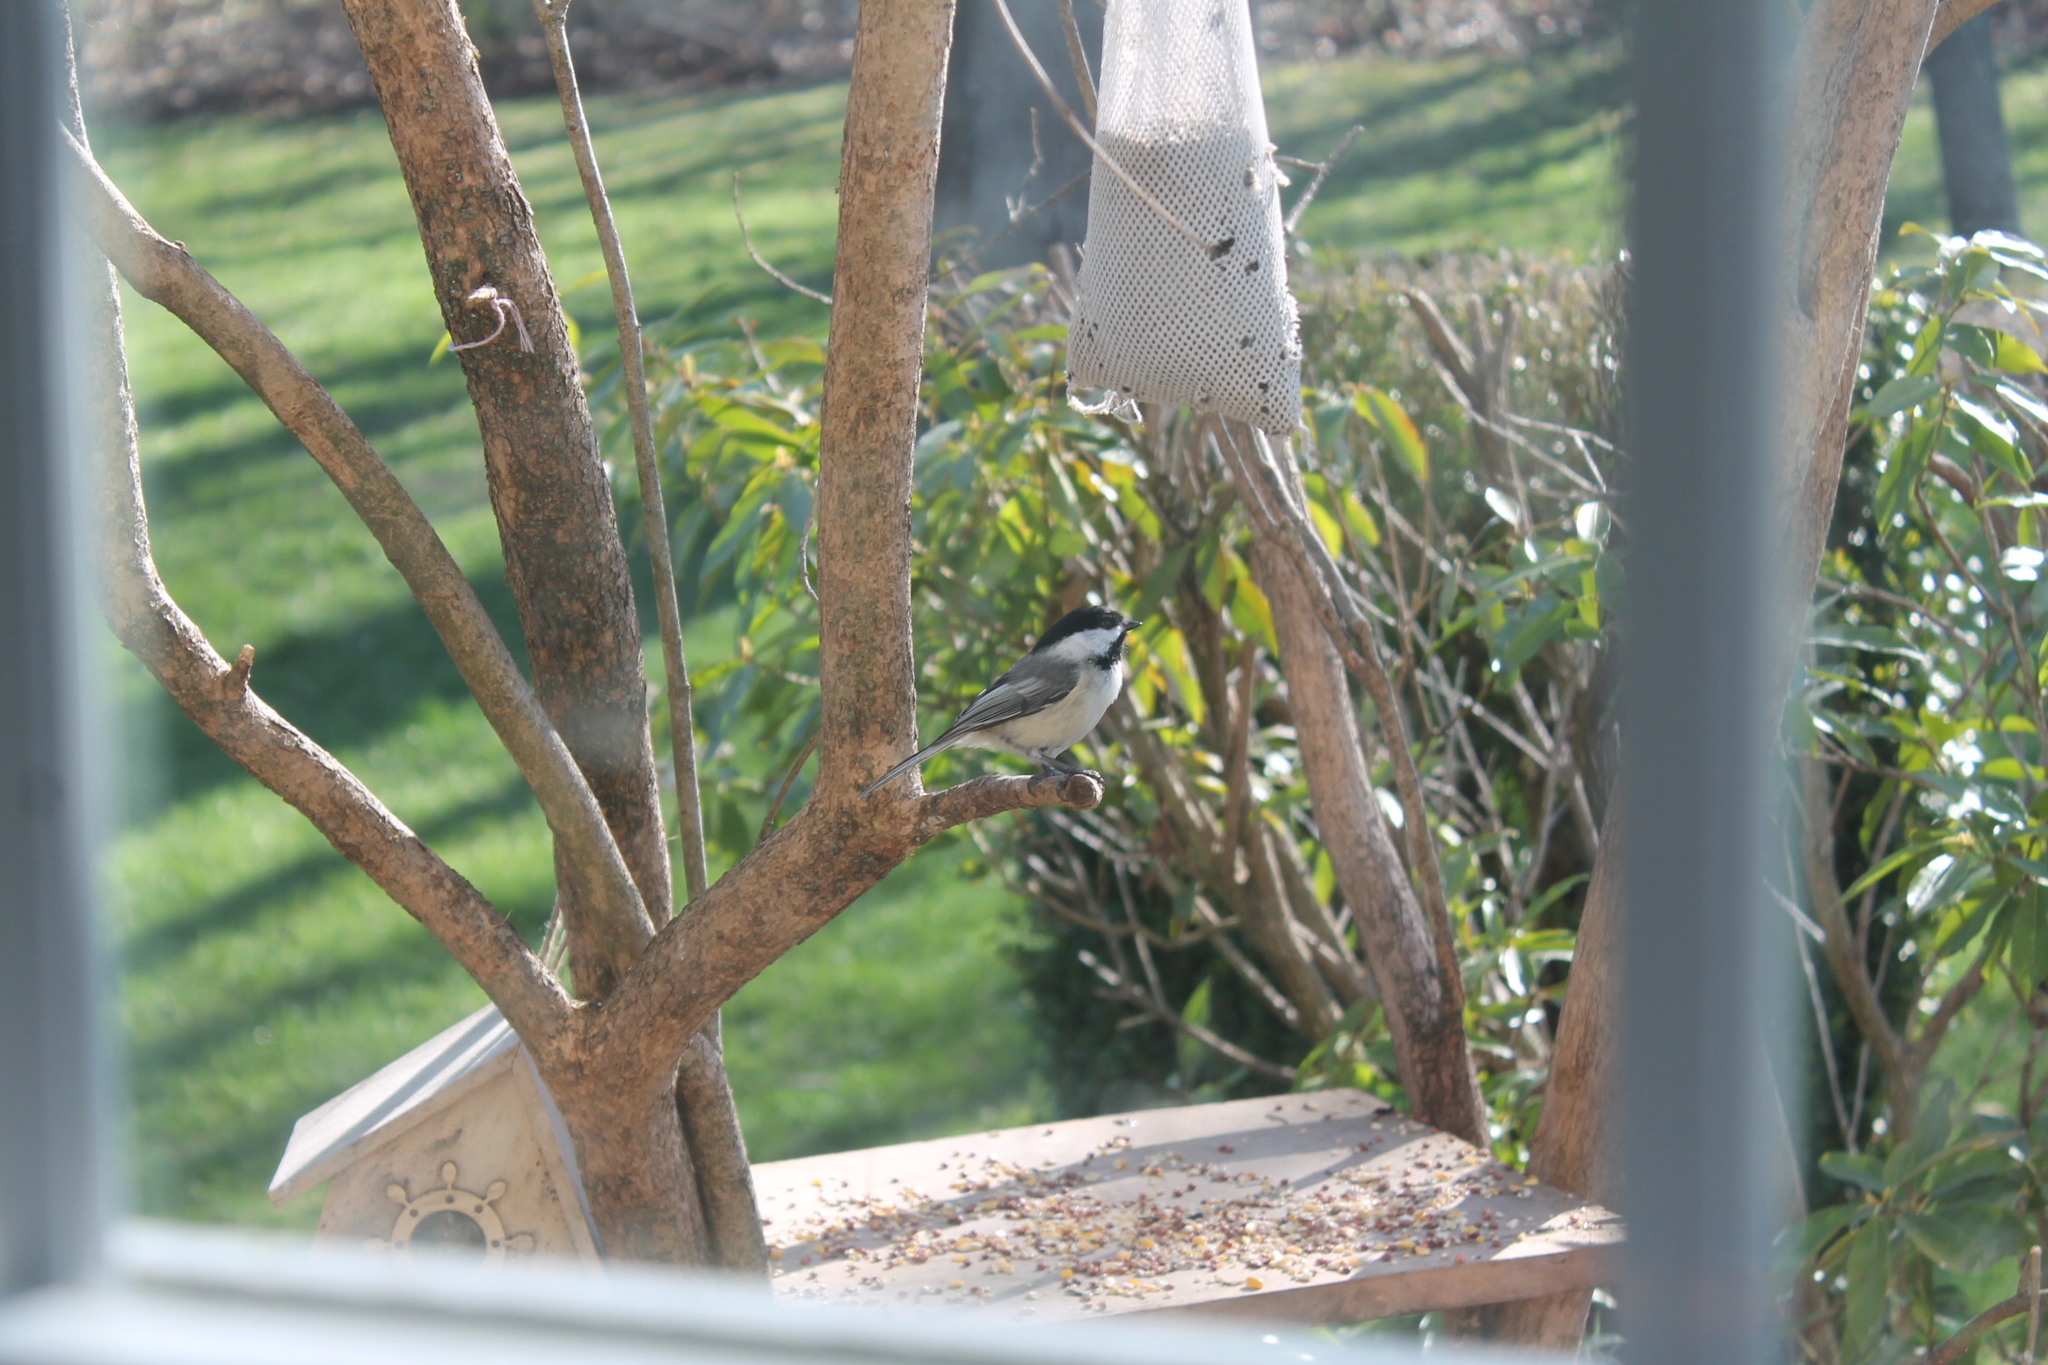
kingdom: Animalia
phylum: Chordata
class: Aves
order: Passeriformes
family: Paridae
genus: Poecile
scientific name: Poecile atricapillus
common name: Black-capped chickadee
